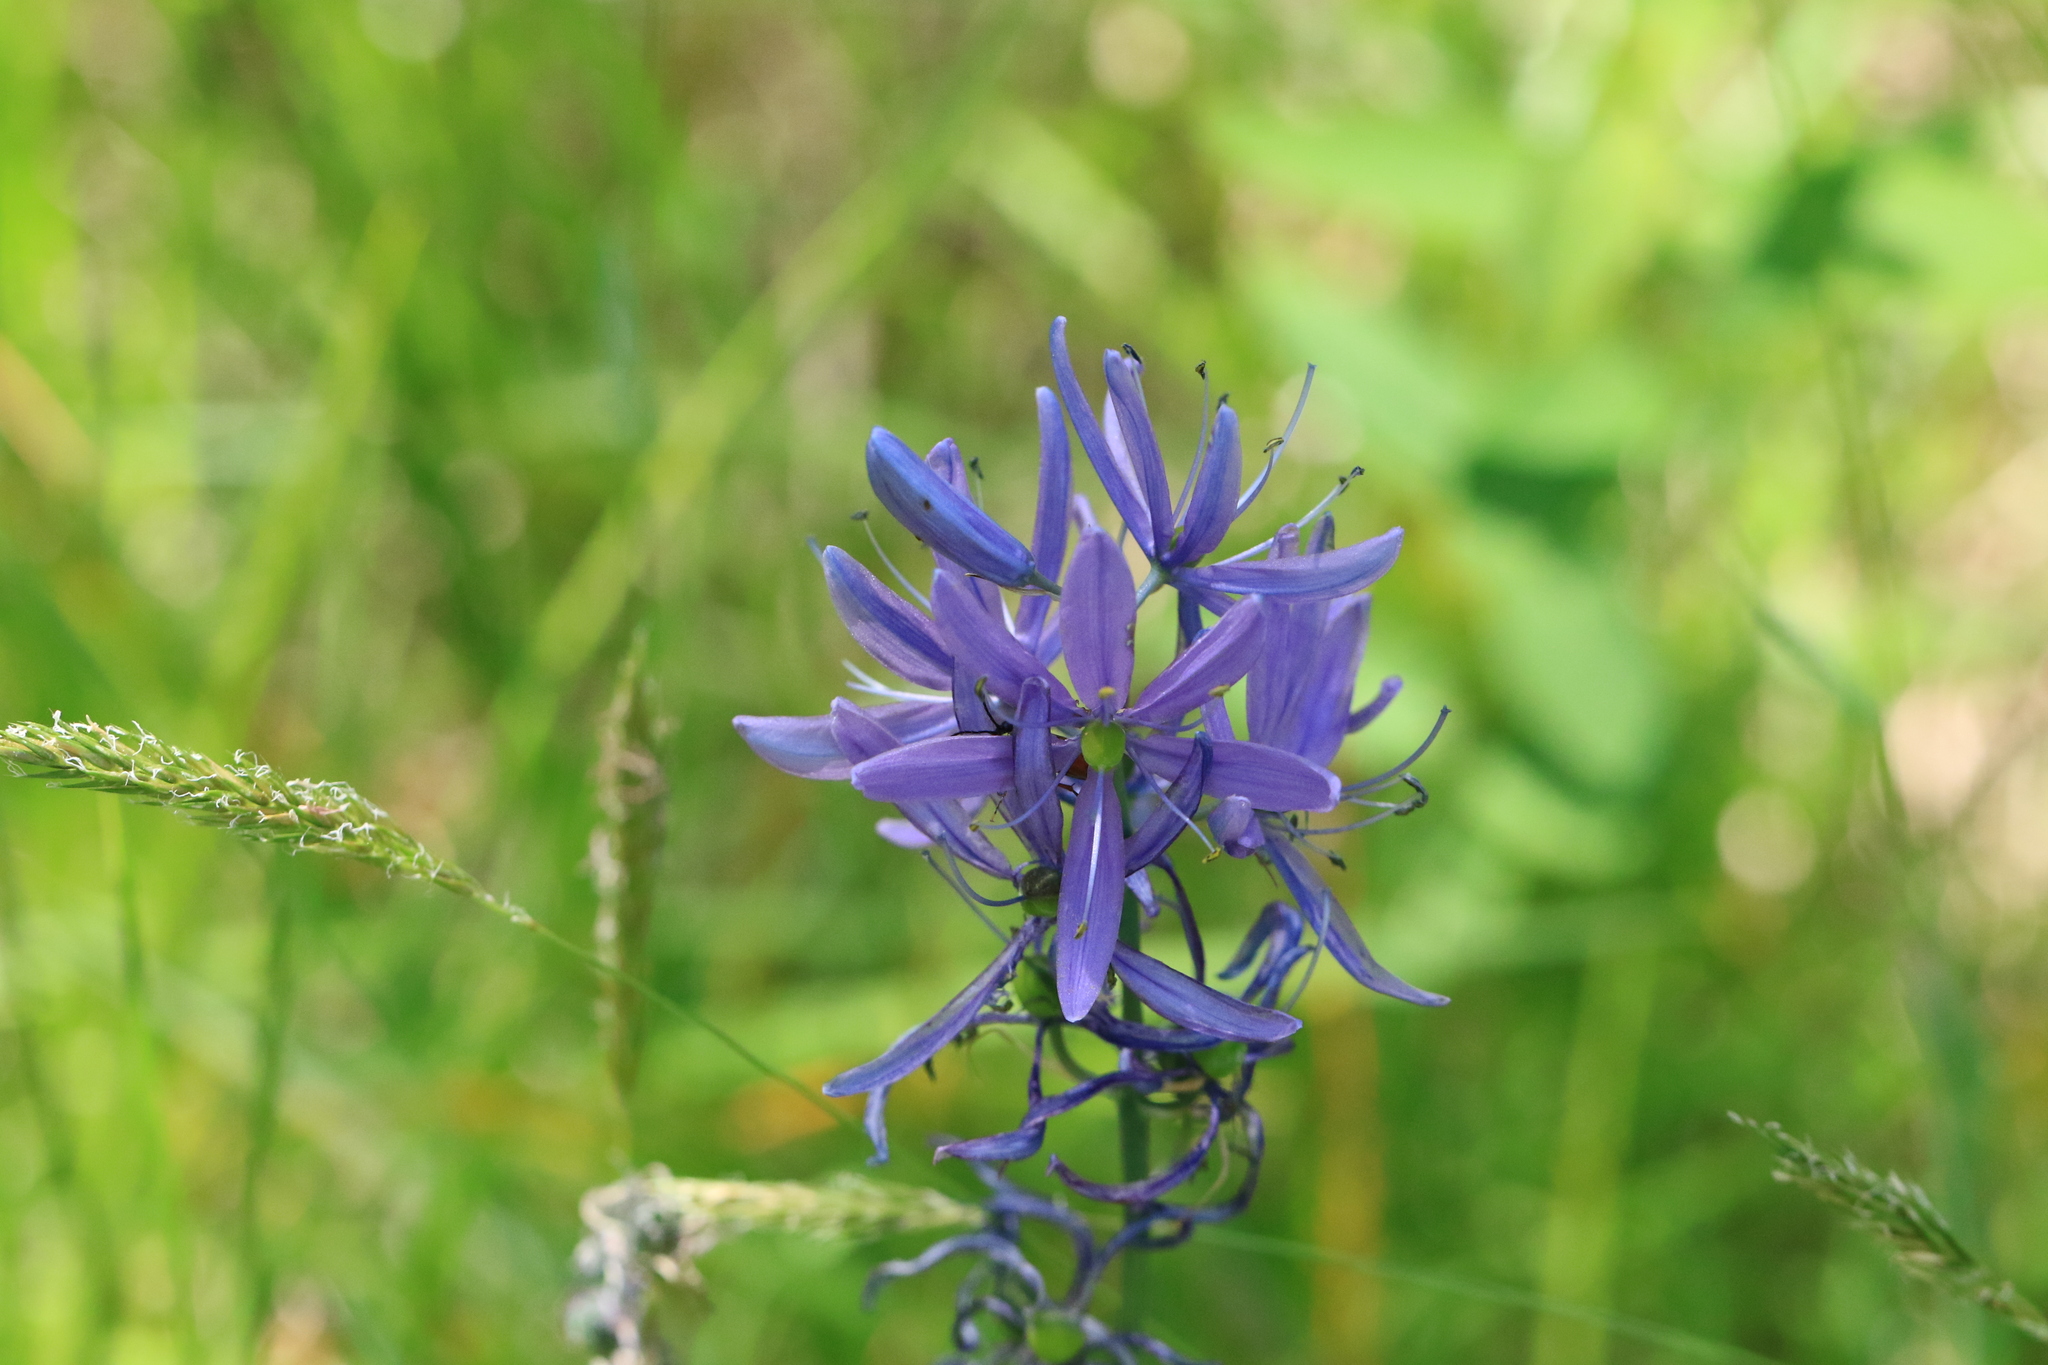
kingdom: Plantae
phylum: Tracheophyta
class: Liliopsida
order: Asparagales
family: Asparagaceae
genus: Camassia
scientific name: Camassia quamash
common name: Common camas
